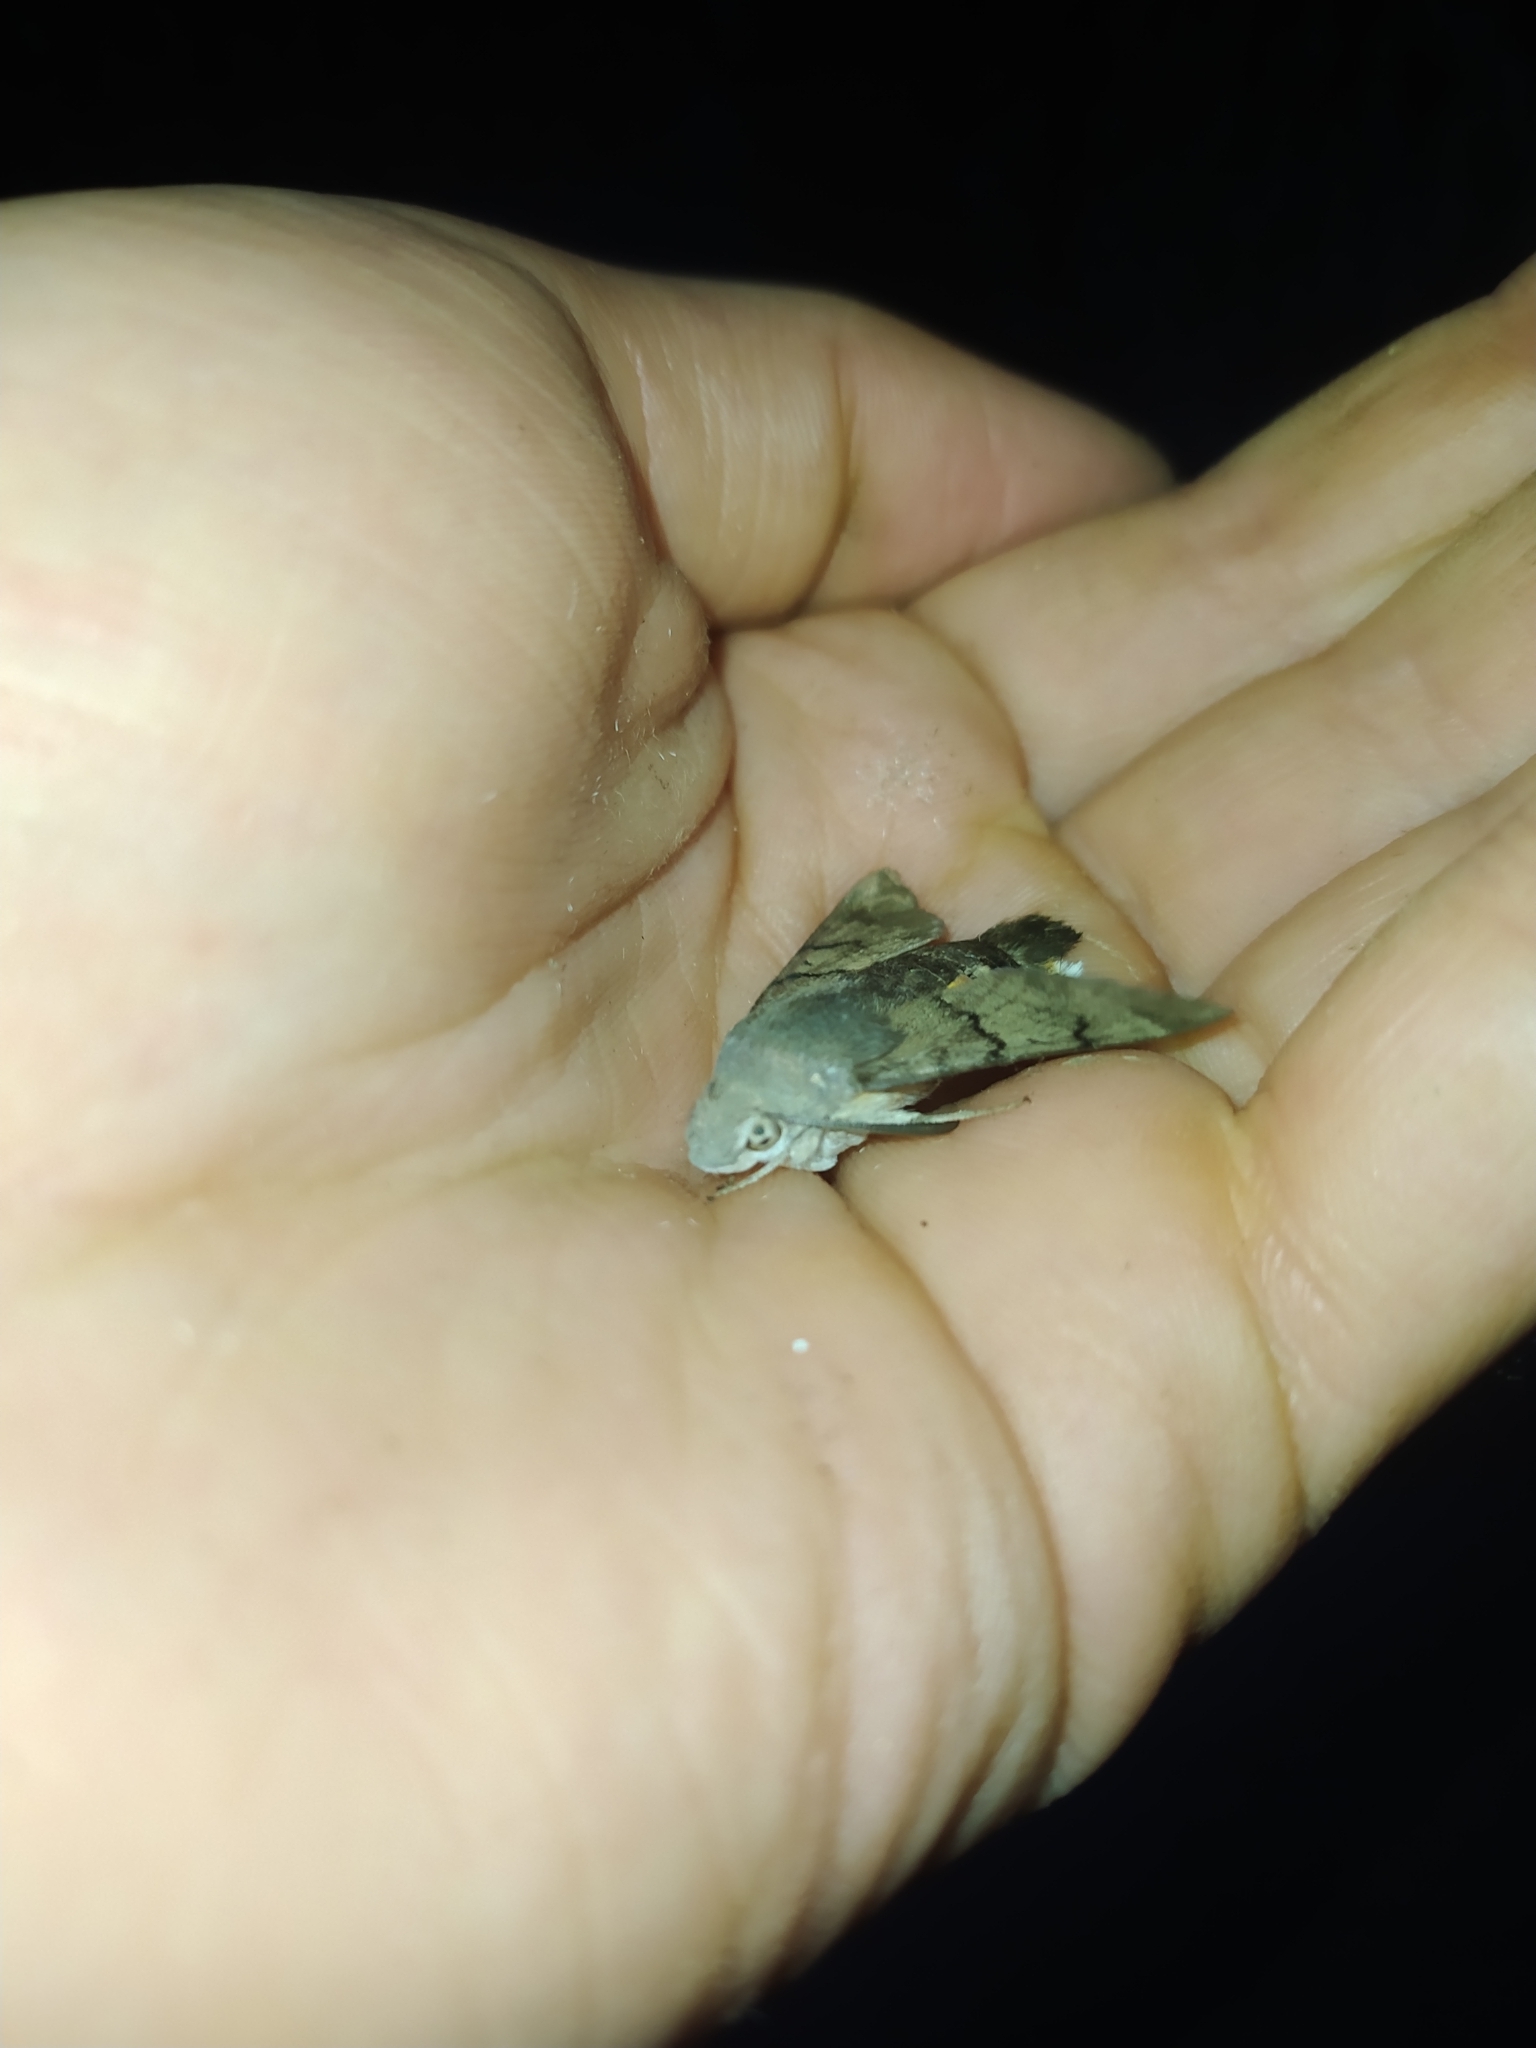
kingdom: Animalia
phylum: Arthropoda
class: Insecta
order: Lepidoptera
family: Sphingidae
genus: Macroglossum
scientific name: Macroglossum stellatarum
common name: Humming-bird hawk-moth
